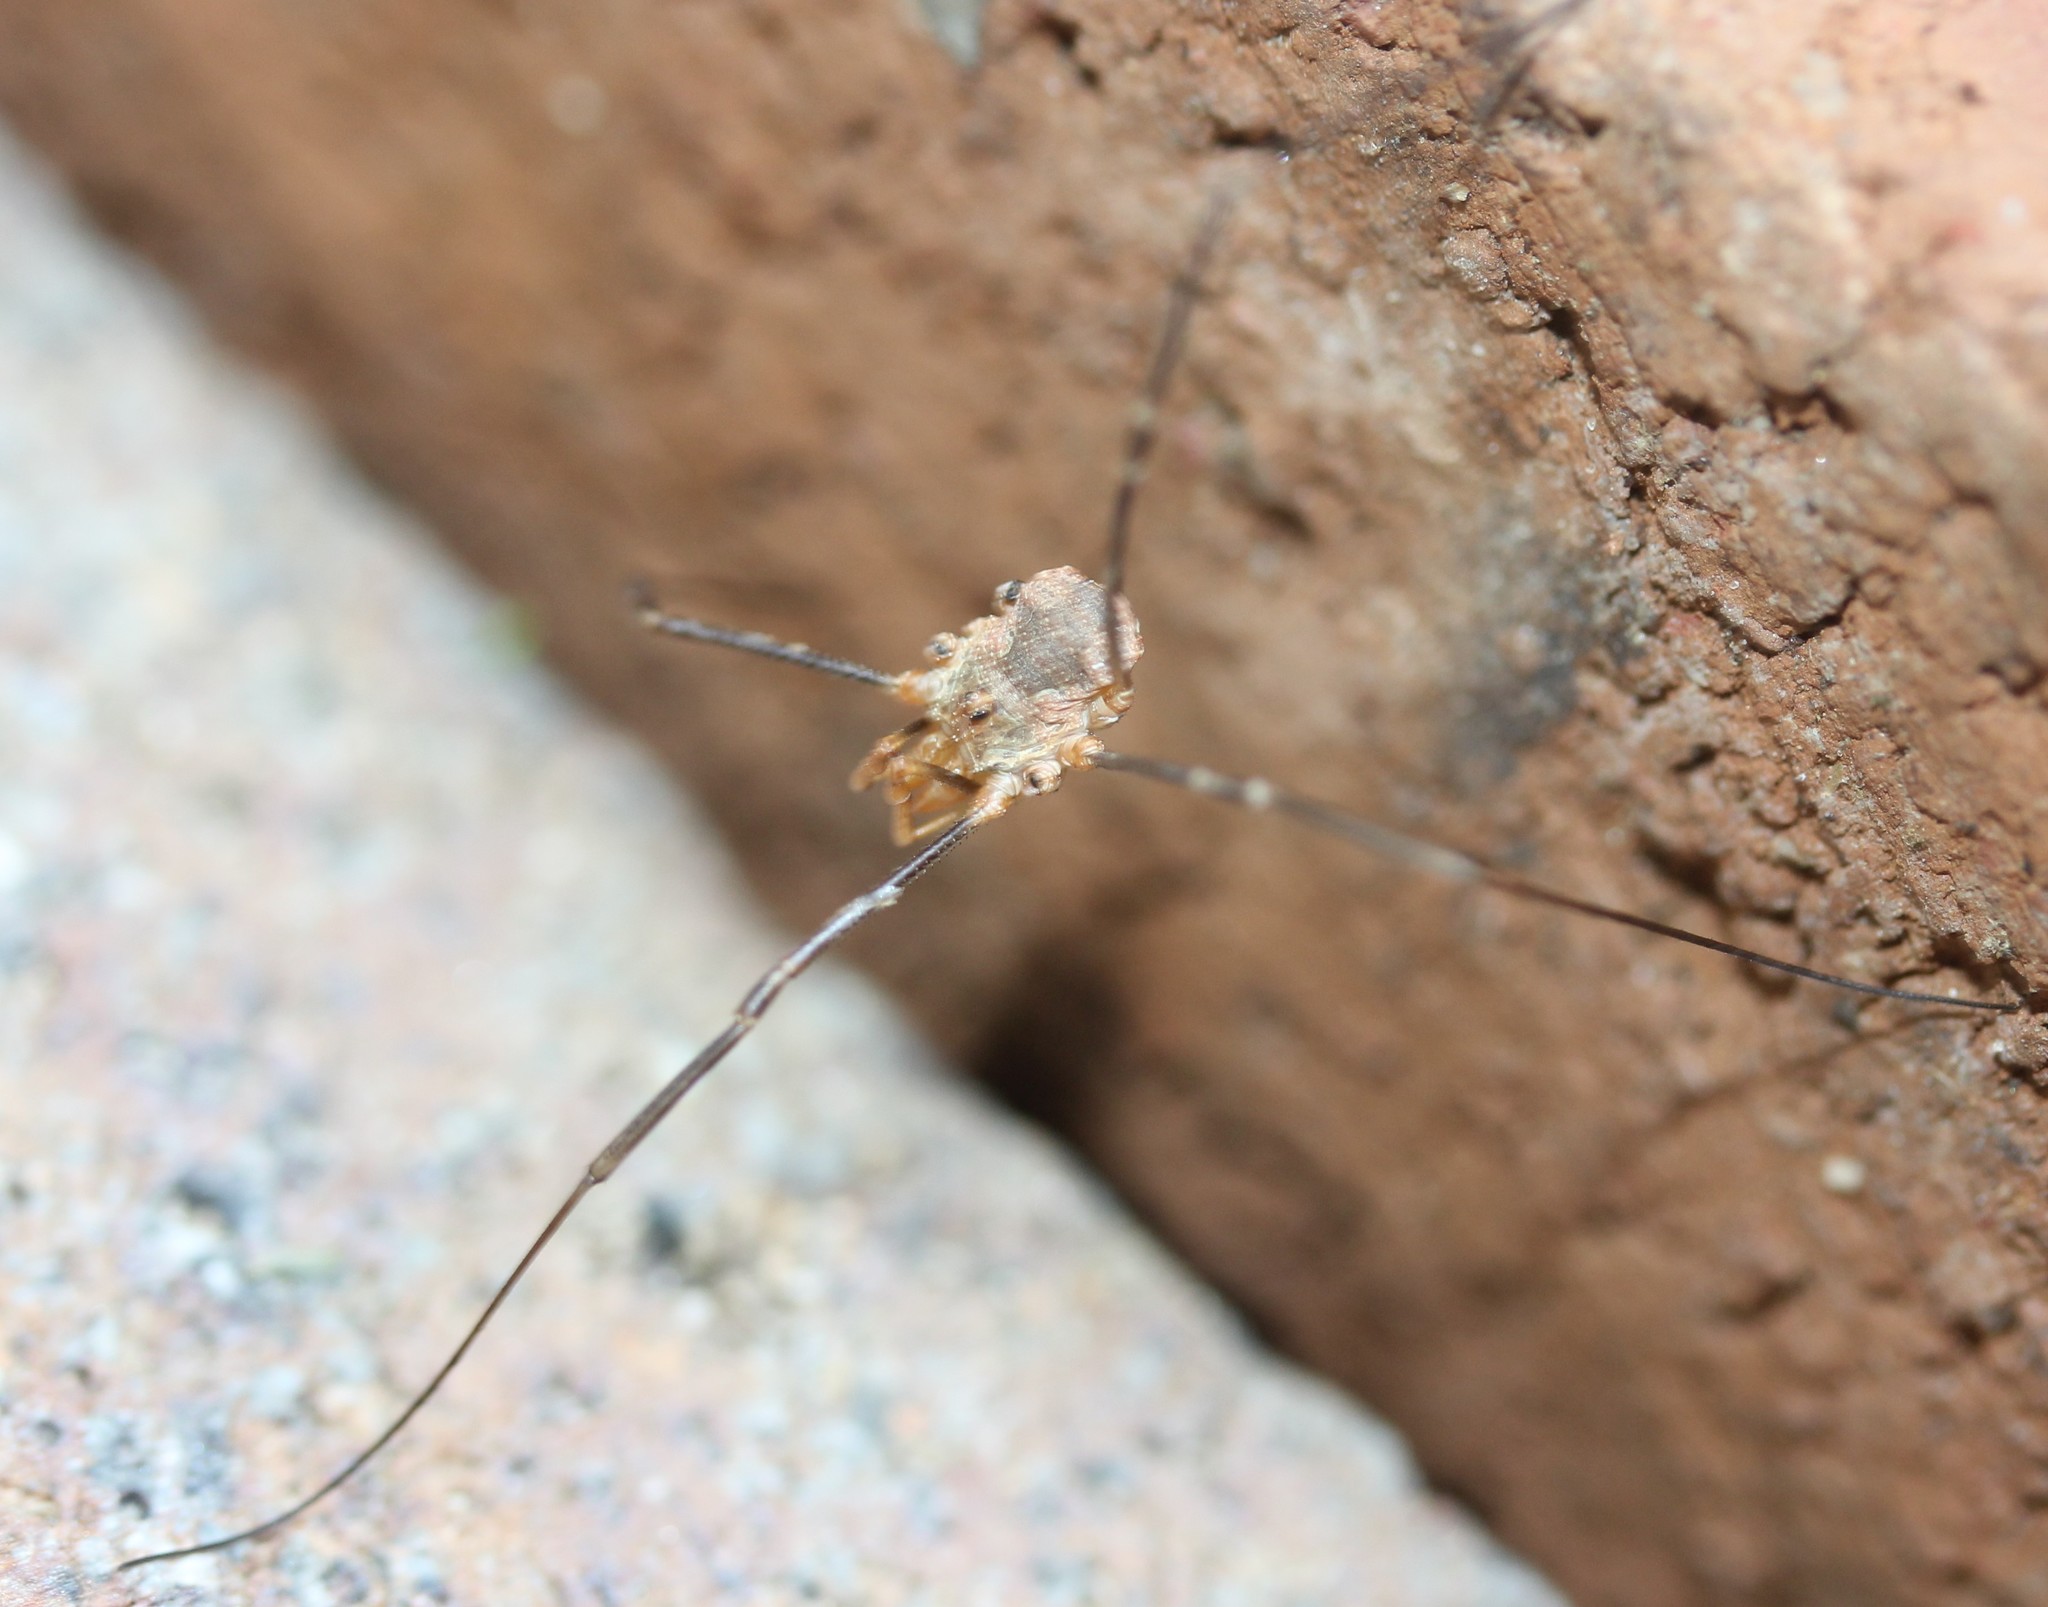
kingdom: Animalia
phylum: Arthropoda
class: Arachnida
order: Opiliones
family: Phalangiidae
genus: Phalangium
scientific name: Phalangium opilio
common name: Daddy longleg
